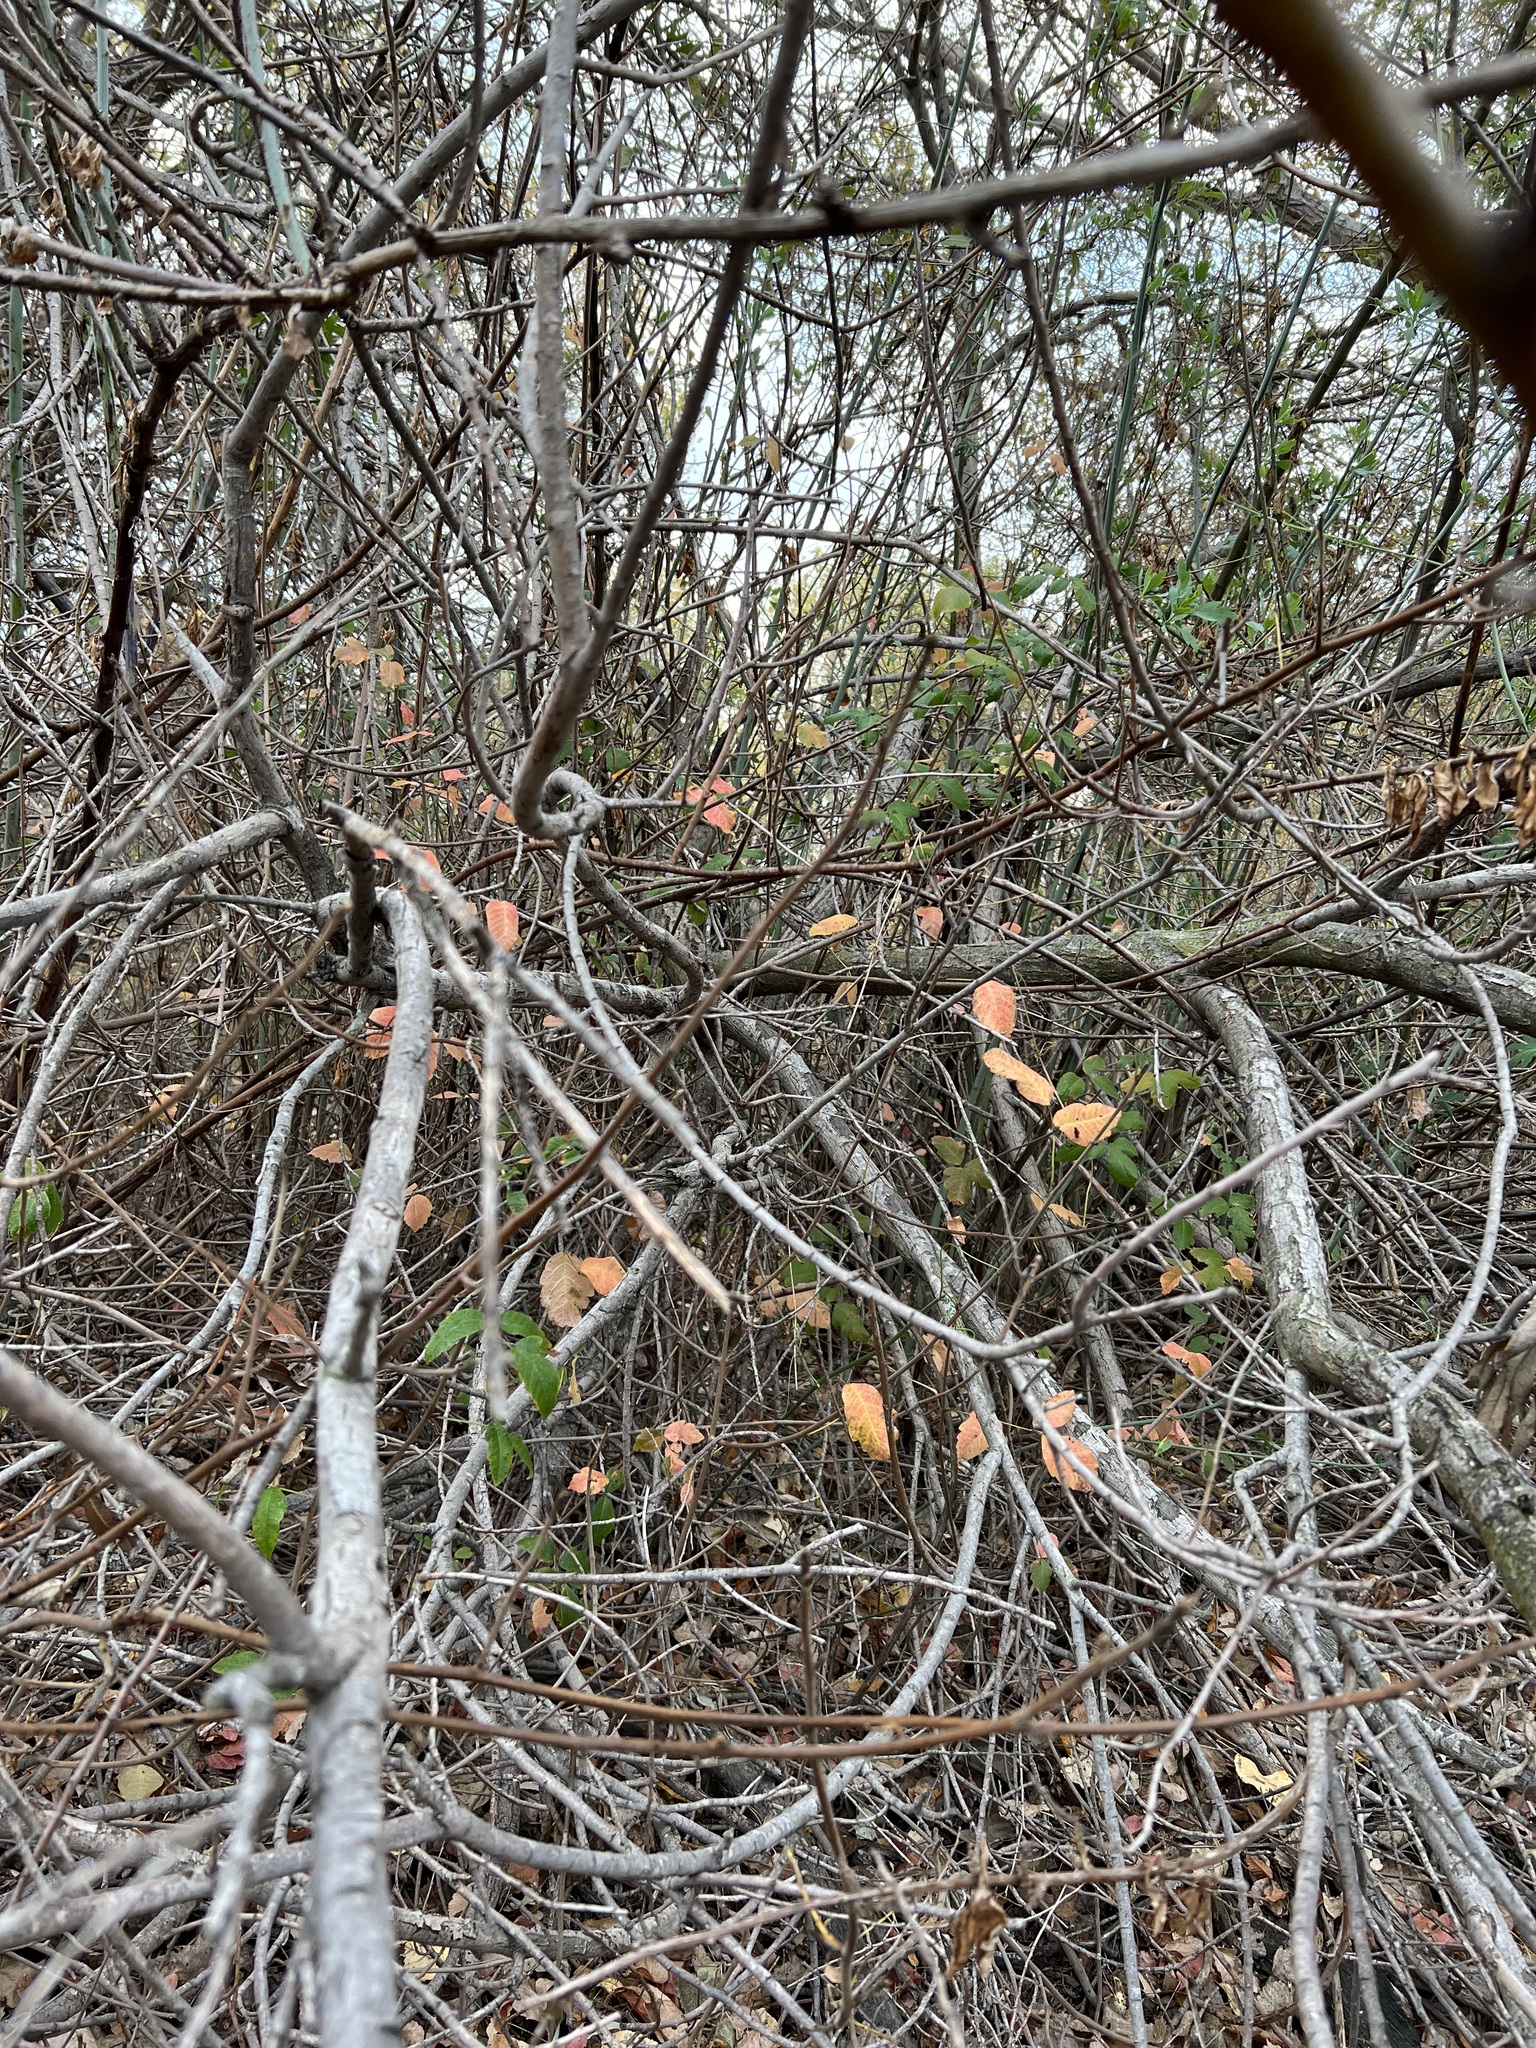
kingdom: Plantae
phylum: Tracheophyta
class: Magnoliopsida
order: Sapindales
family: Anacardiaceae
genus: Toxicodendron
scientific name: Toxicodendron diversilobum
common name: Pacific poison-oak
